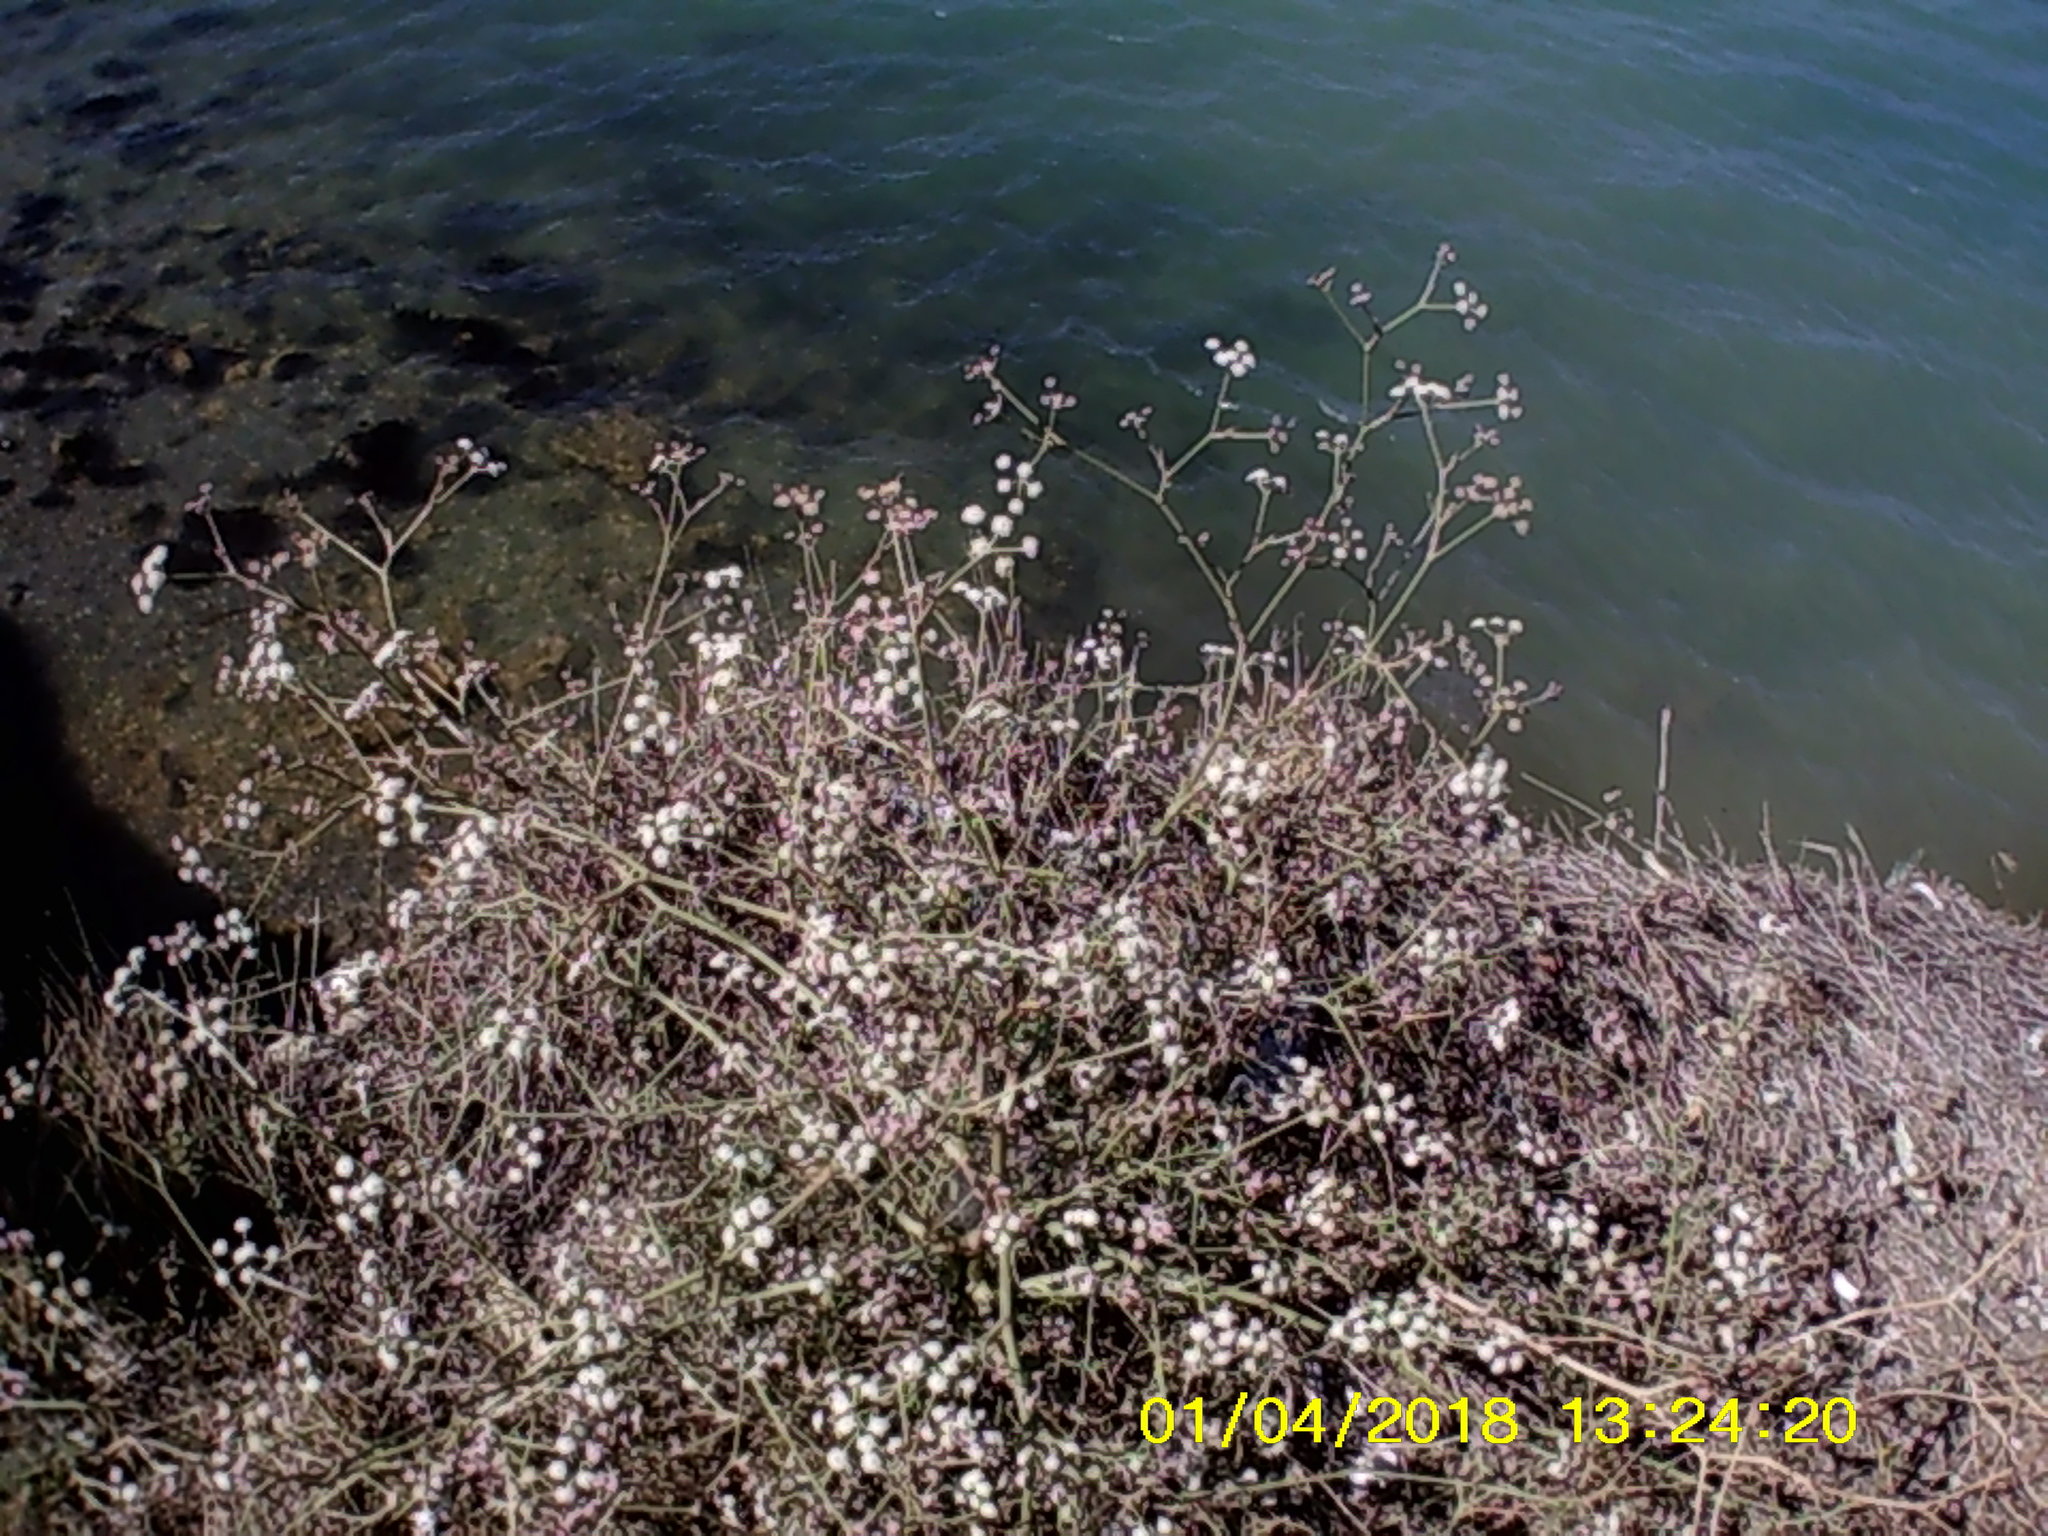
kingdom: Plantae
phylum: Tracheophyta
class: Magnoliopsida
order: Apiales
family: Apiaceae
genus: Seseli
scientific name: Seseli arenarium
